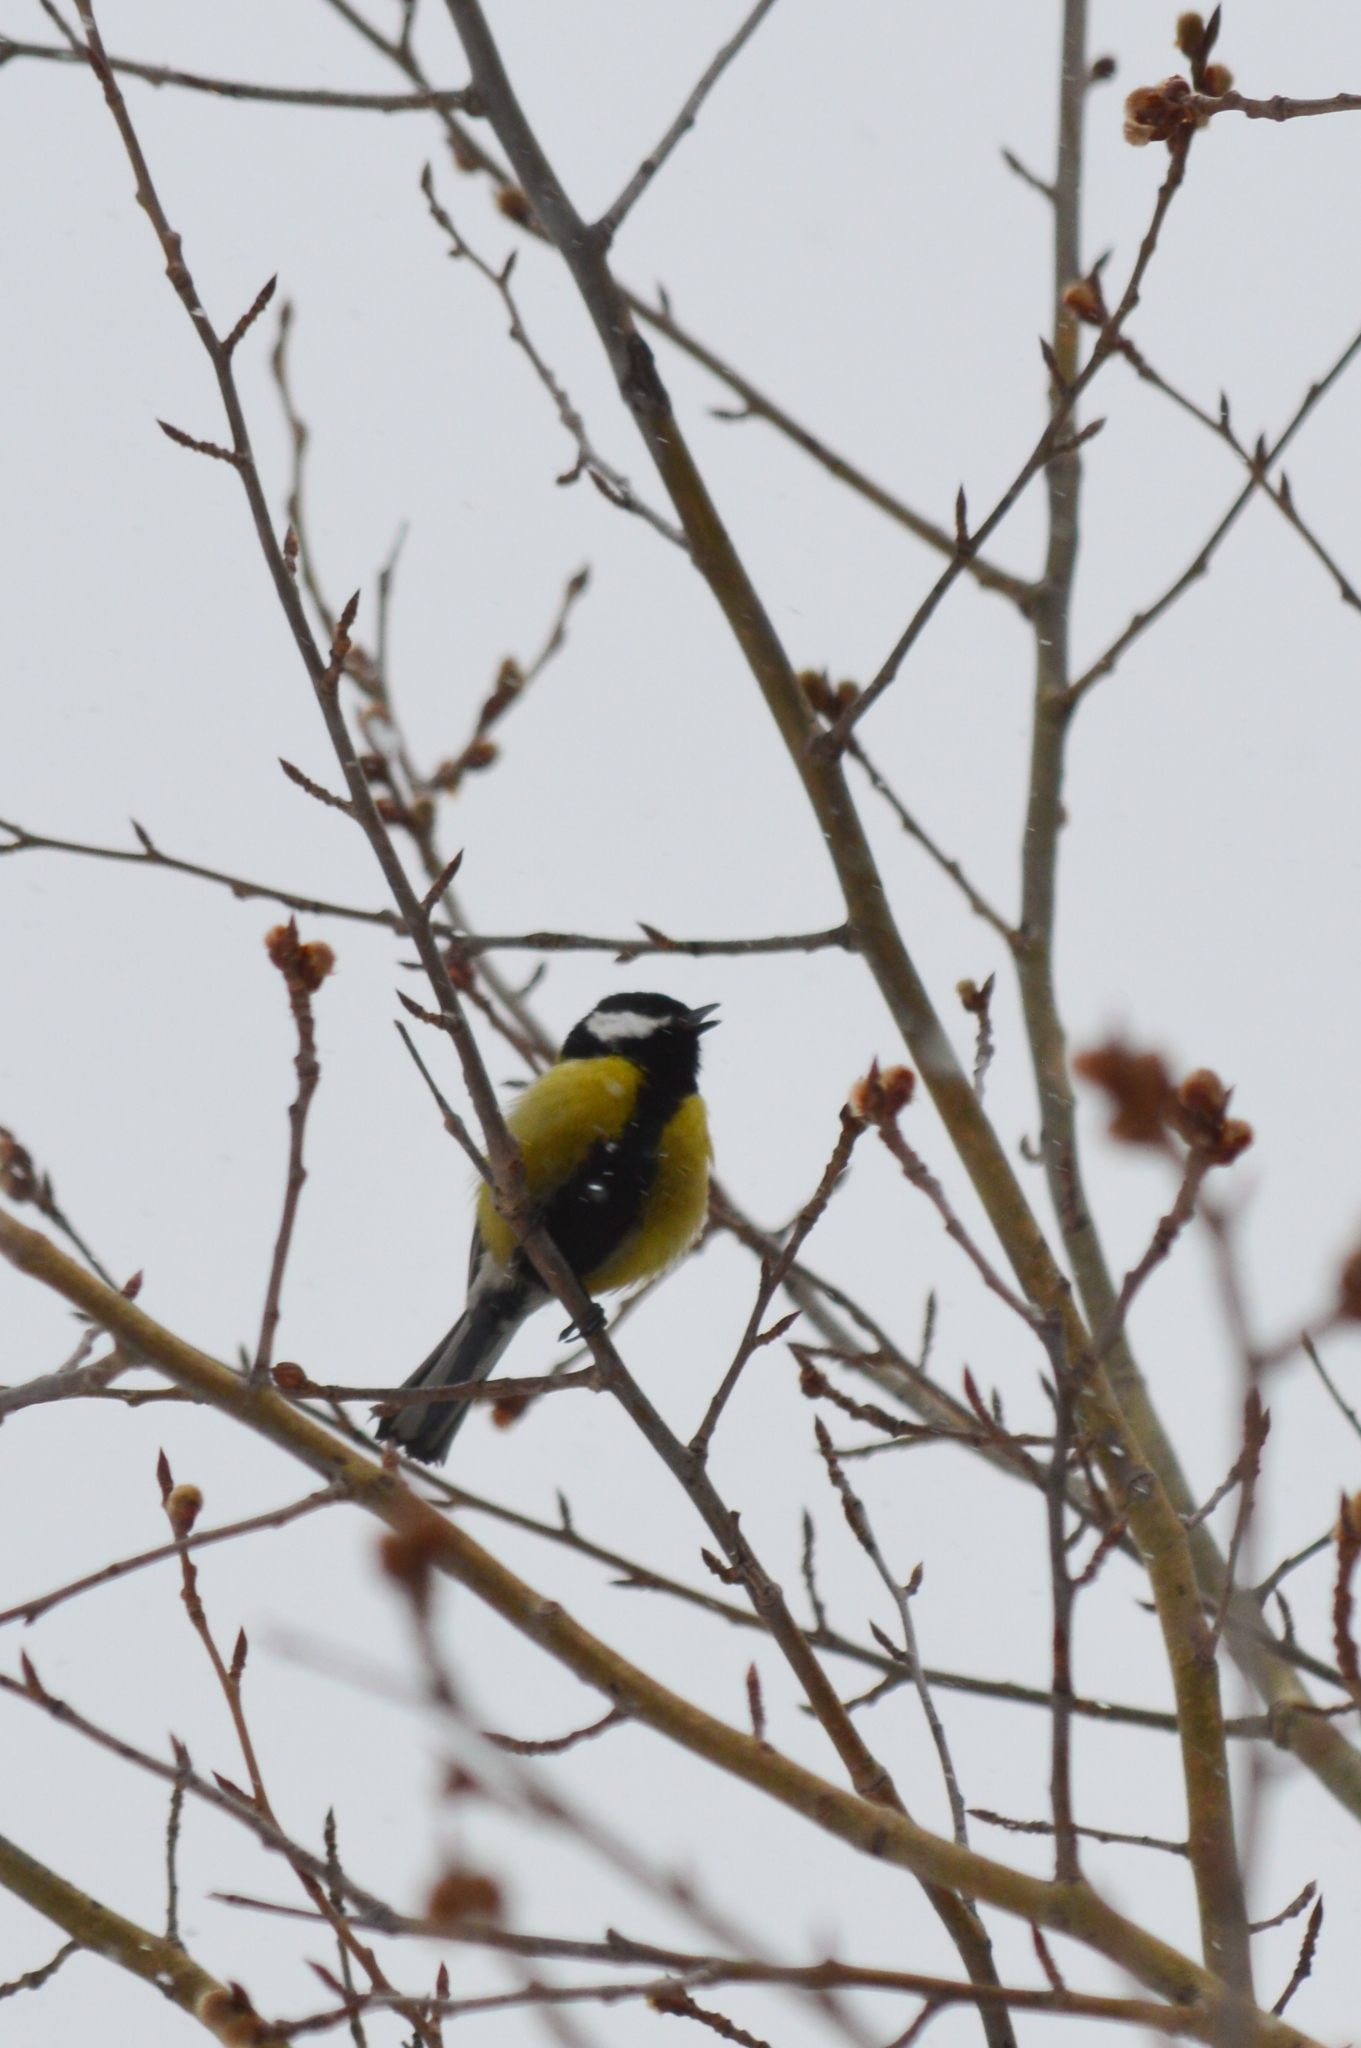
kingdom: Animalia
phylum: Chordata
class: Aves
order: Passeriformes
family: Paridae
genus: Parus
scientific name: Parus major
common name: Great tit
